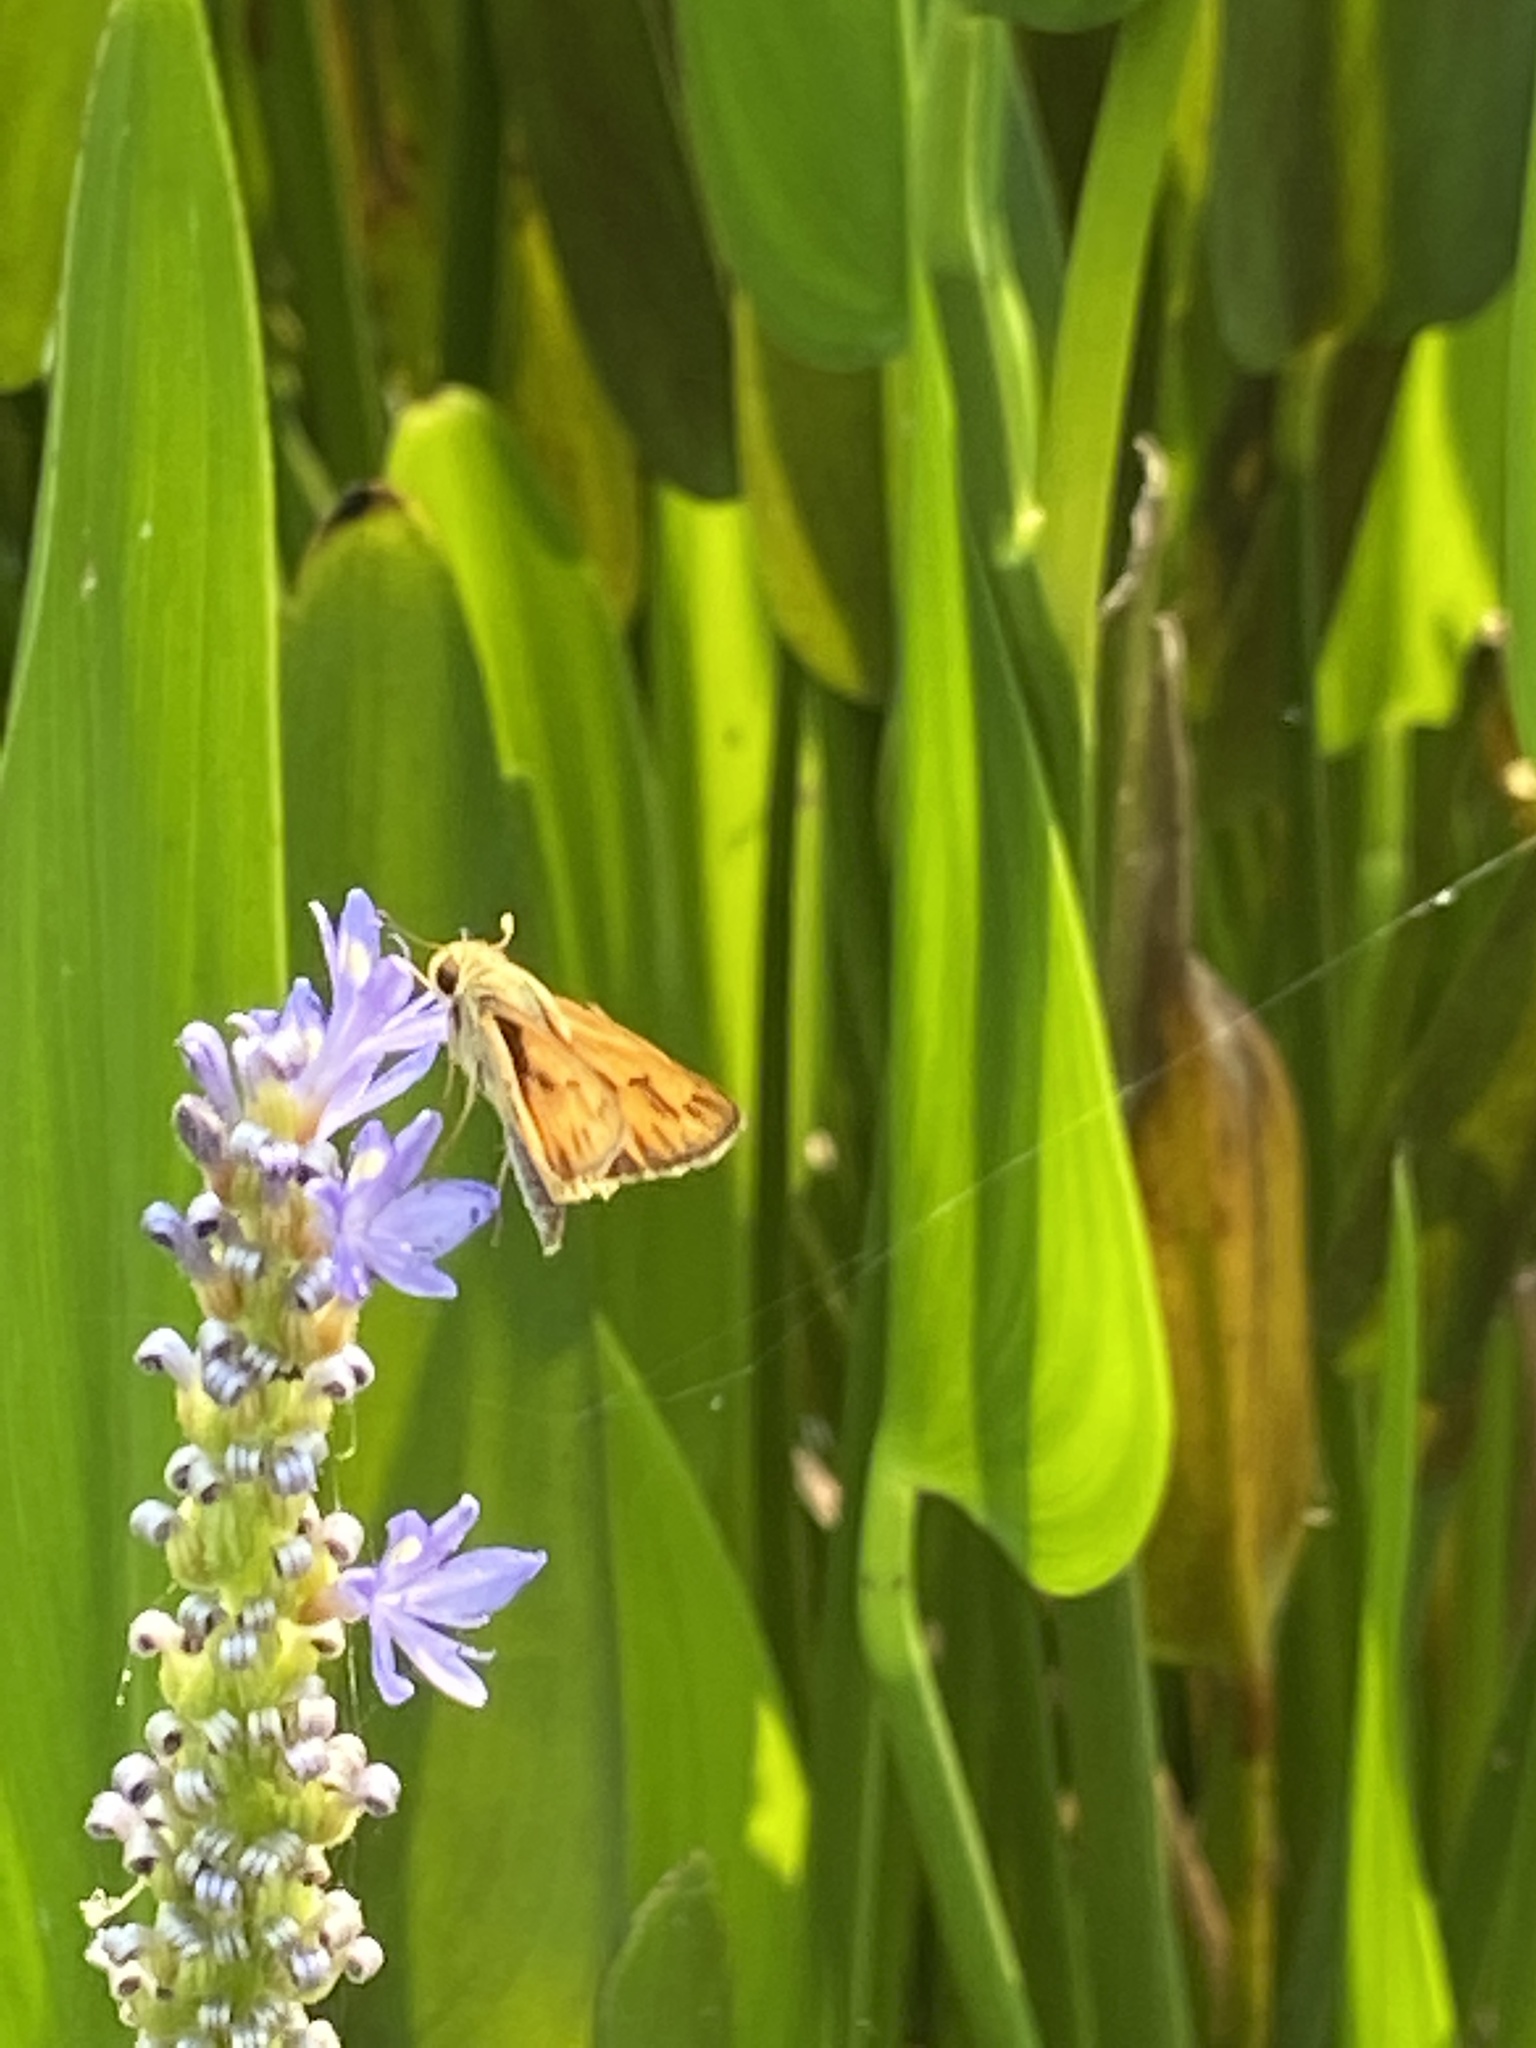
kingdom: Animalia
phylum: Arthropoda
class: Insecta
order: Lepidoptera
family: Hesperiidae
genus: Hylephila
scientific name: Hylephila phyleus
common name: Fiery skipper
